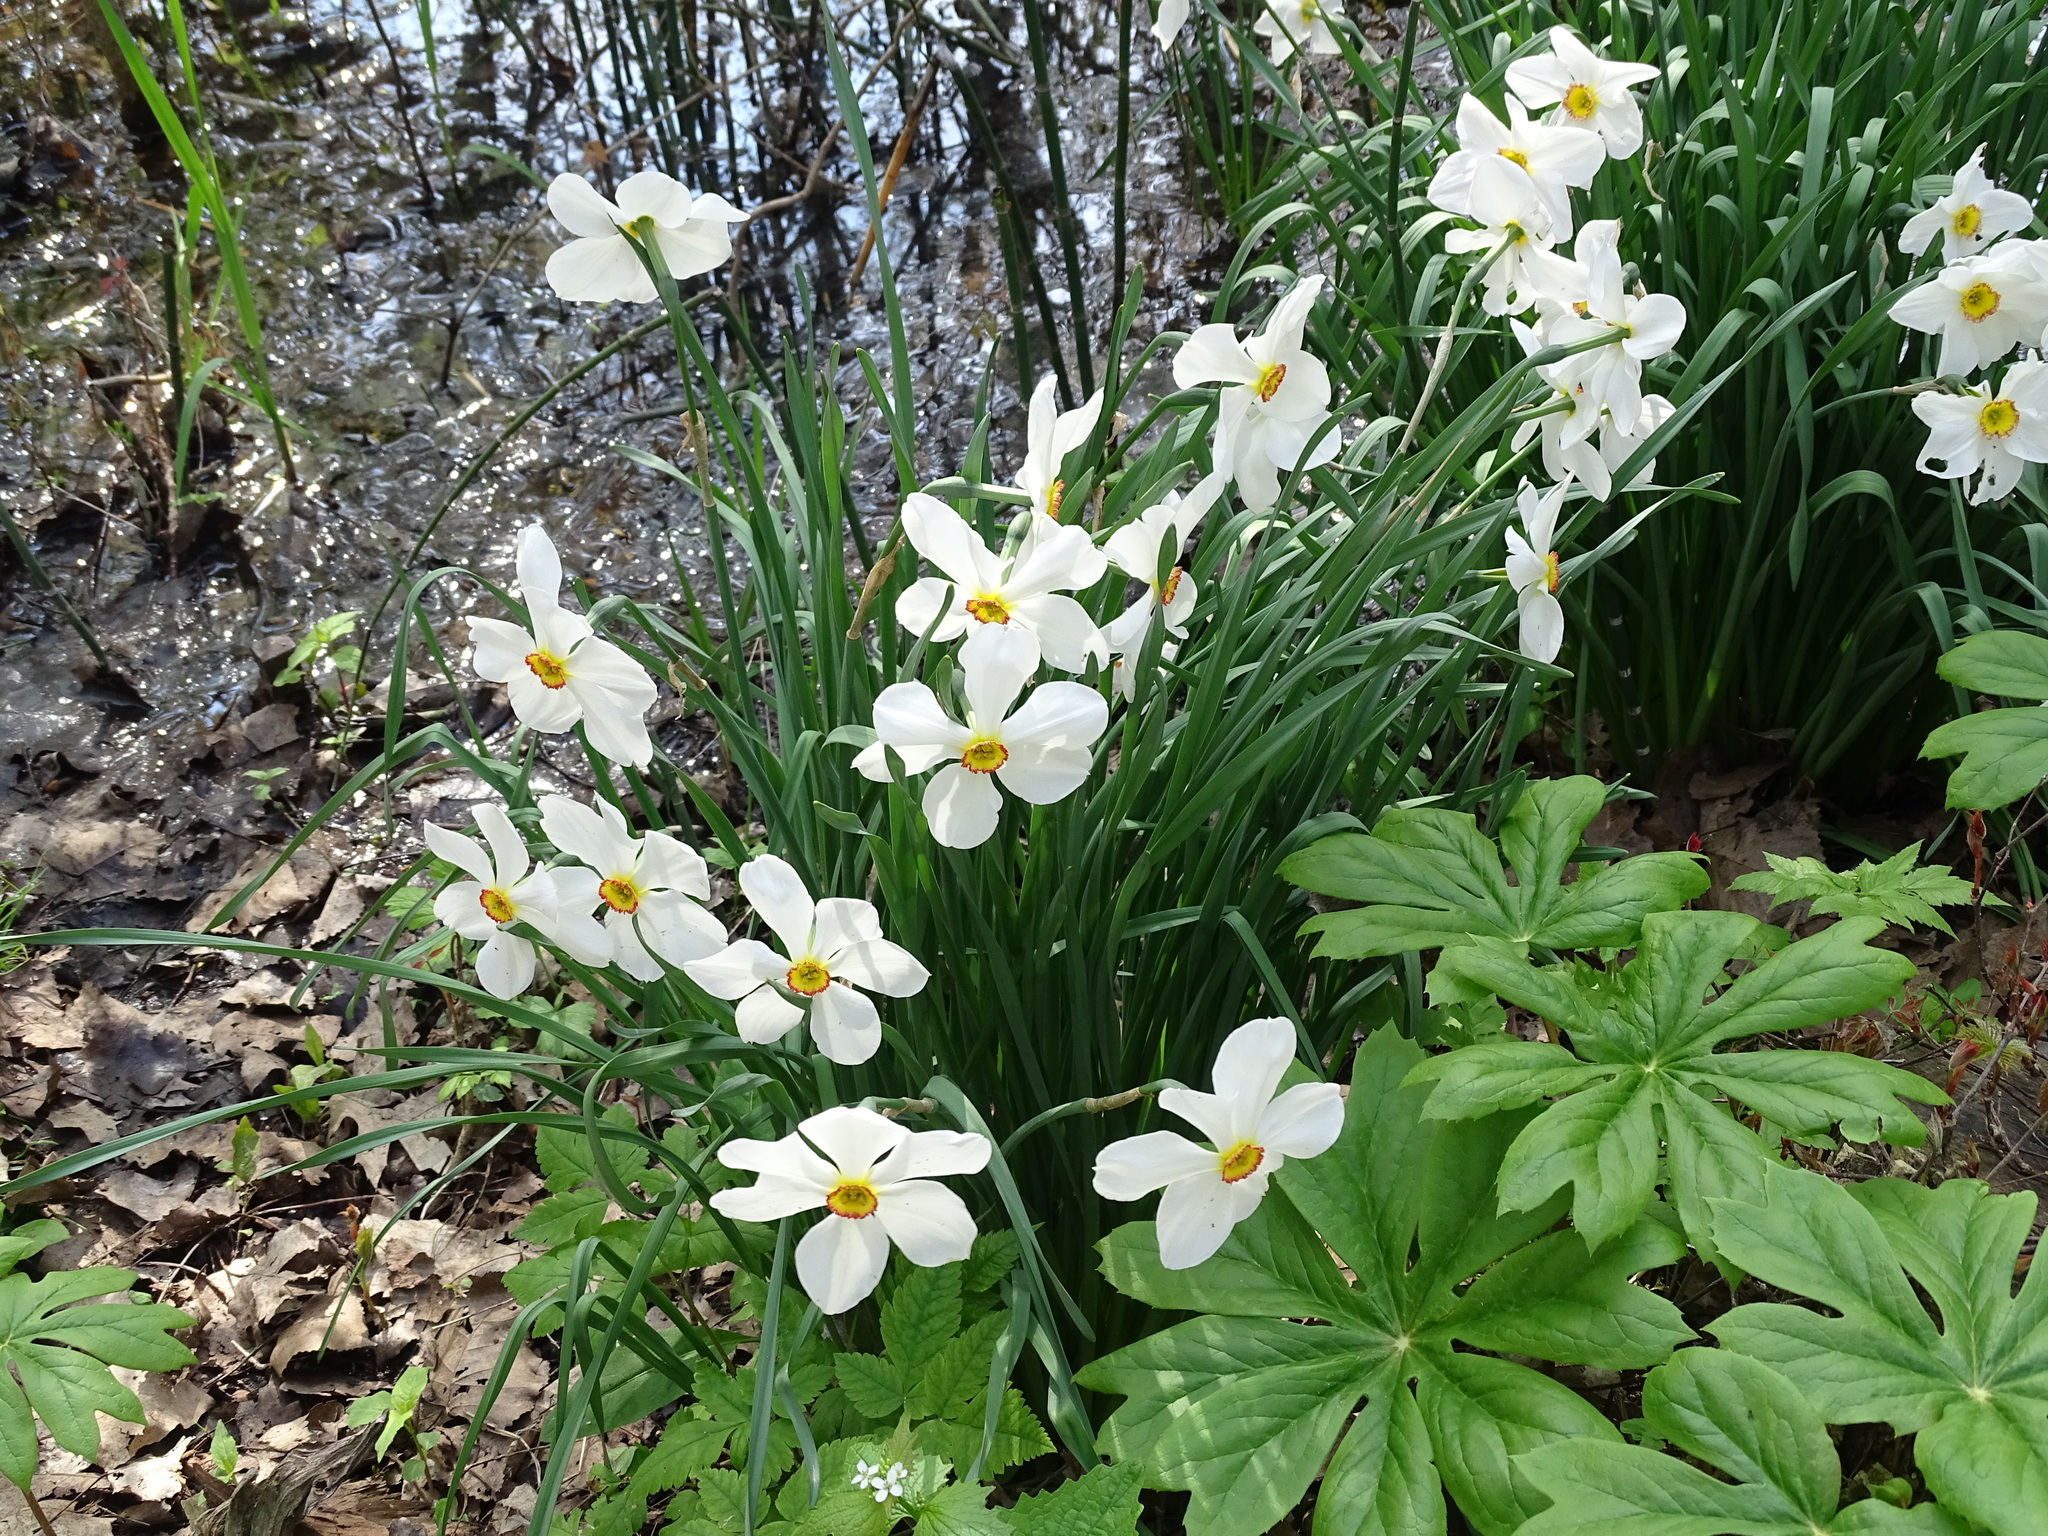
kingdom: Plantae
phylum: Tracheophyta
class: Liliopsida
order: Asparagales
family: Amaryllidaceae
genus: Narcissus
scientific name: Narcissus poeticus
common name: Pheasant's-eye daffodil
